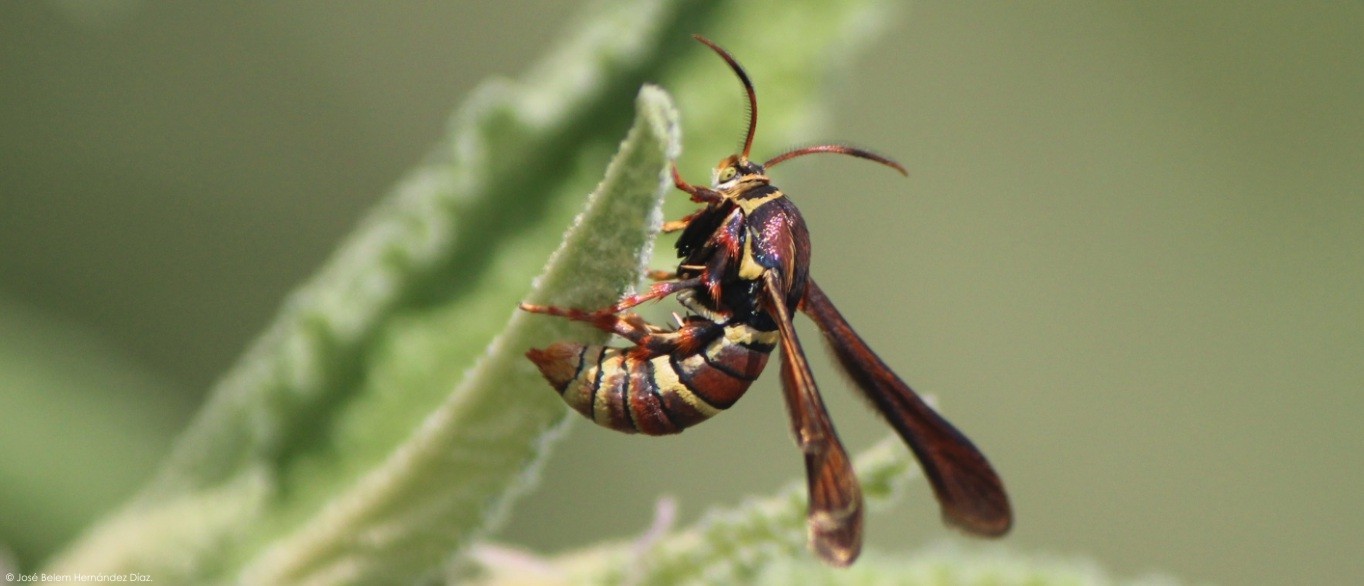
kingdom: Animalia
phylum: Arthropoda
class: Insecta
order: Lepidoptera
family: Sesiidae
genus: Zenodoxus
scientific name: Zenodoxus palmii
